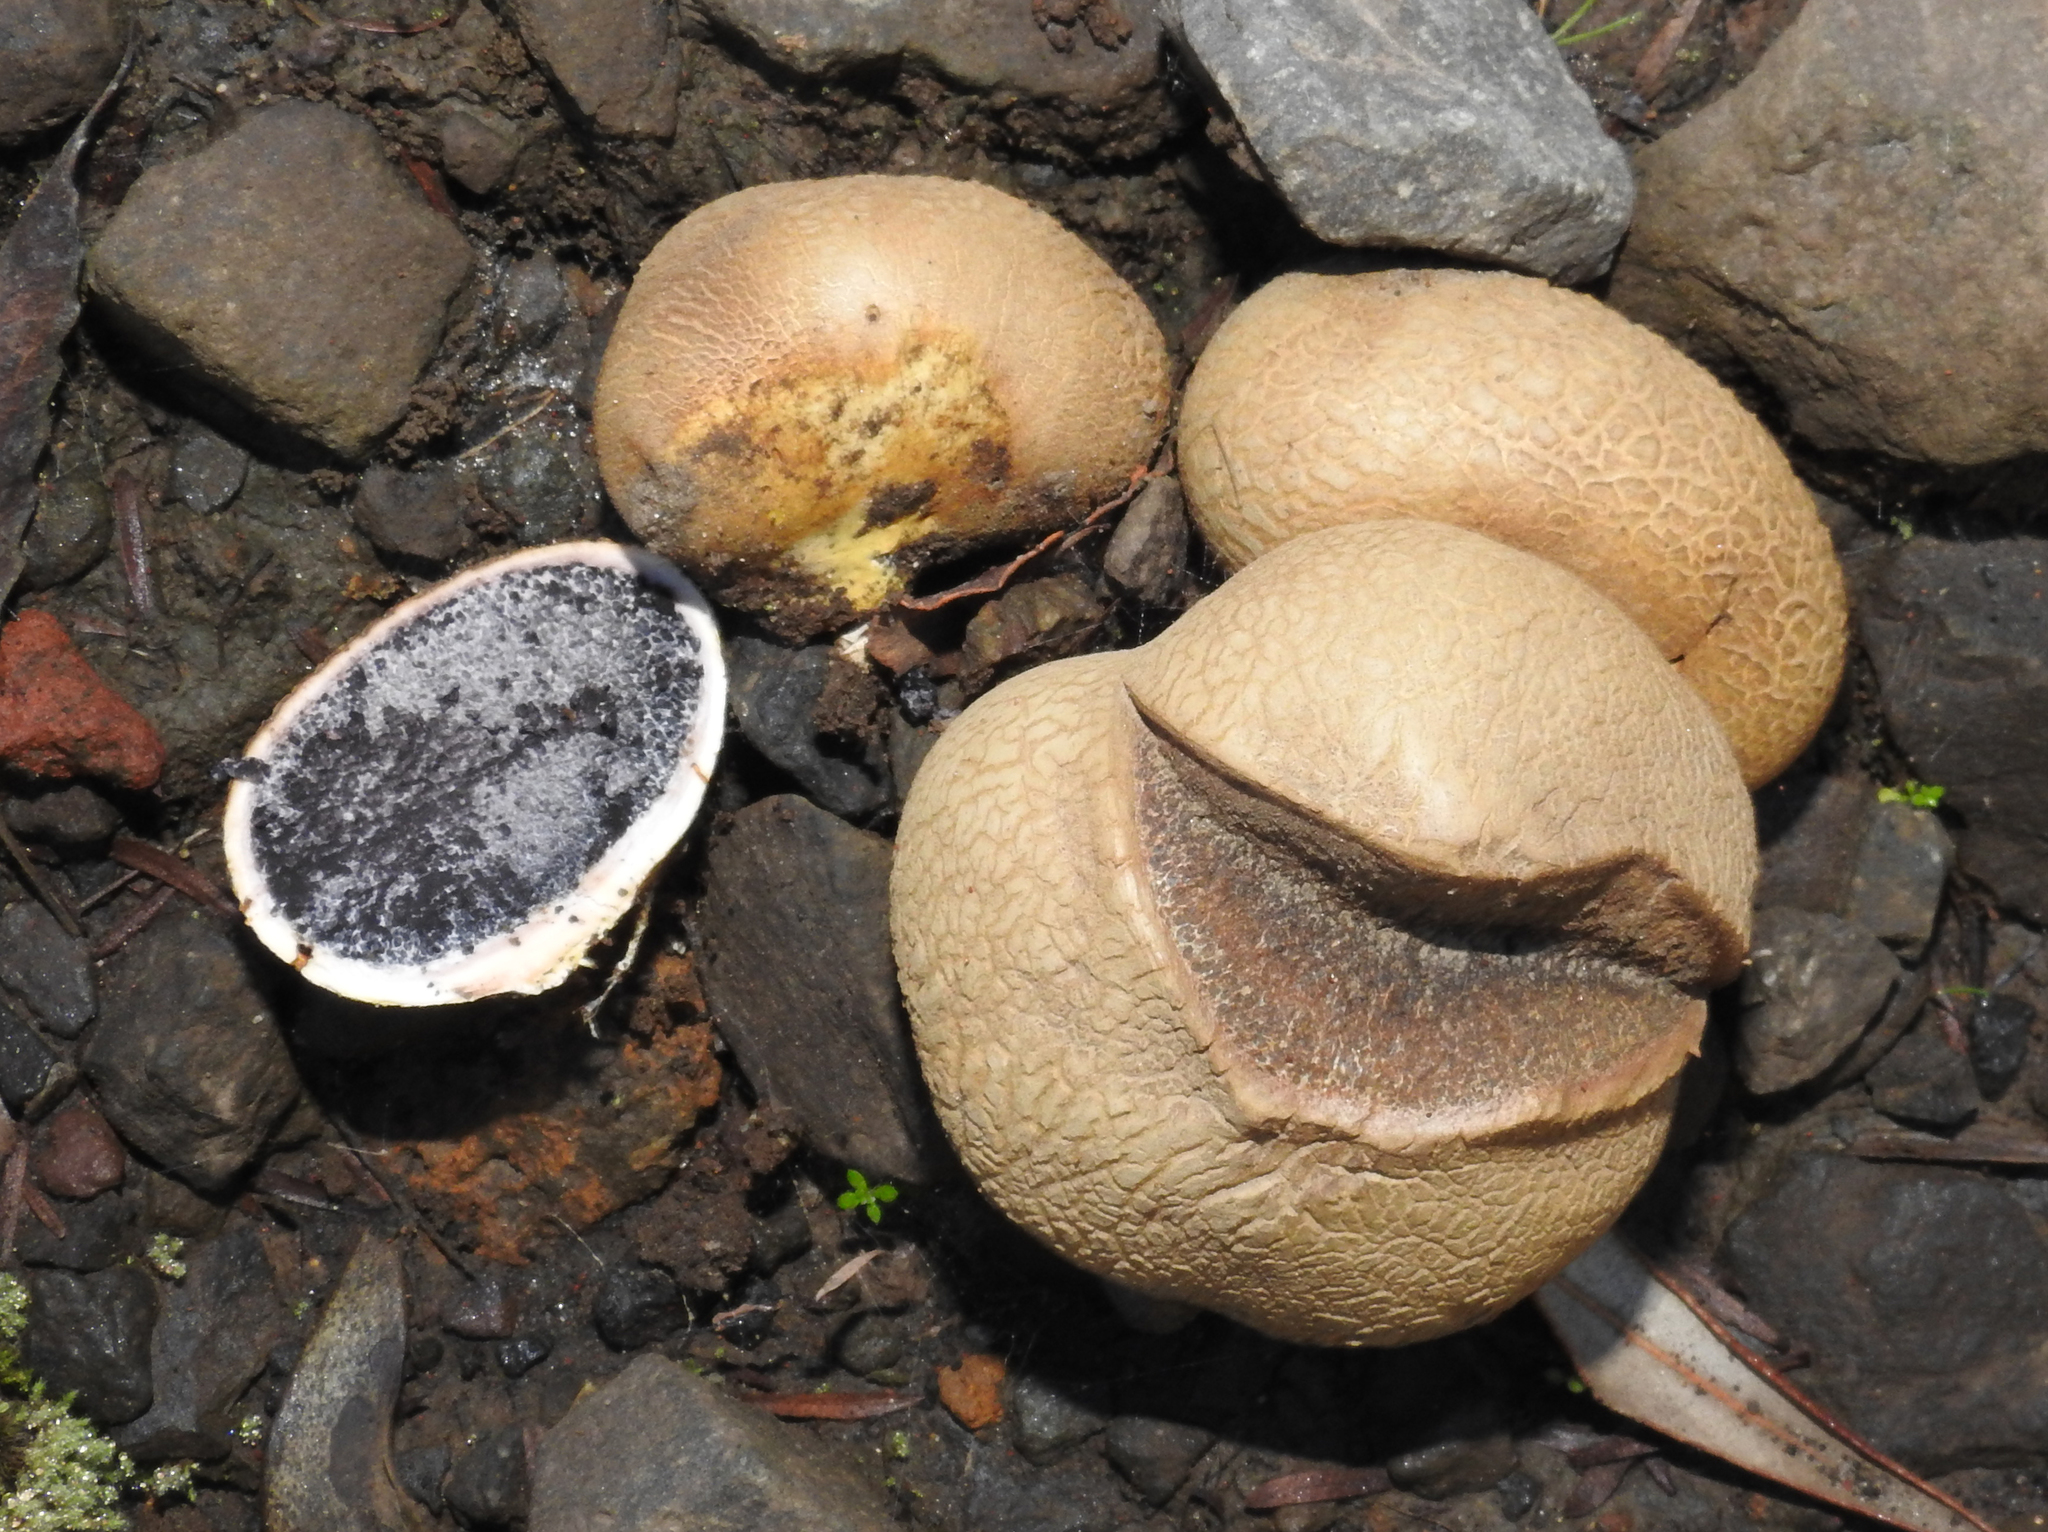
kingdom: Fungi
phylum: Basidiomycota
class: Agaricomycetes
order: Boletales
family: Sclerodermataceae
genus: Scleroderma
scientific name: Scleroderma
